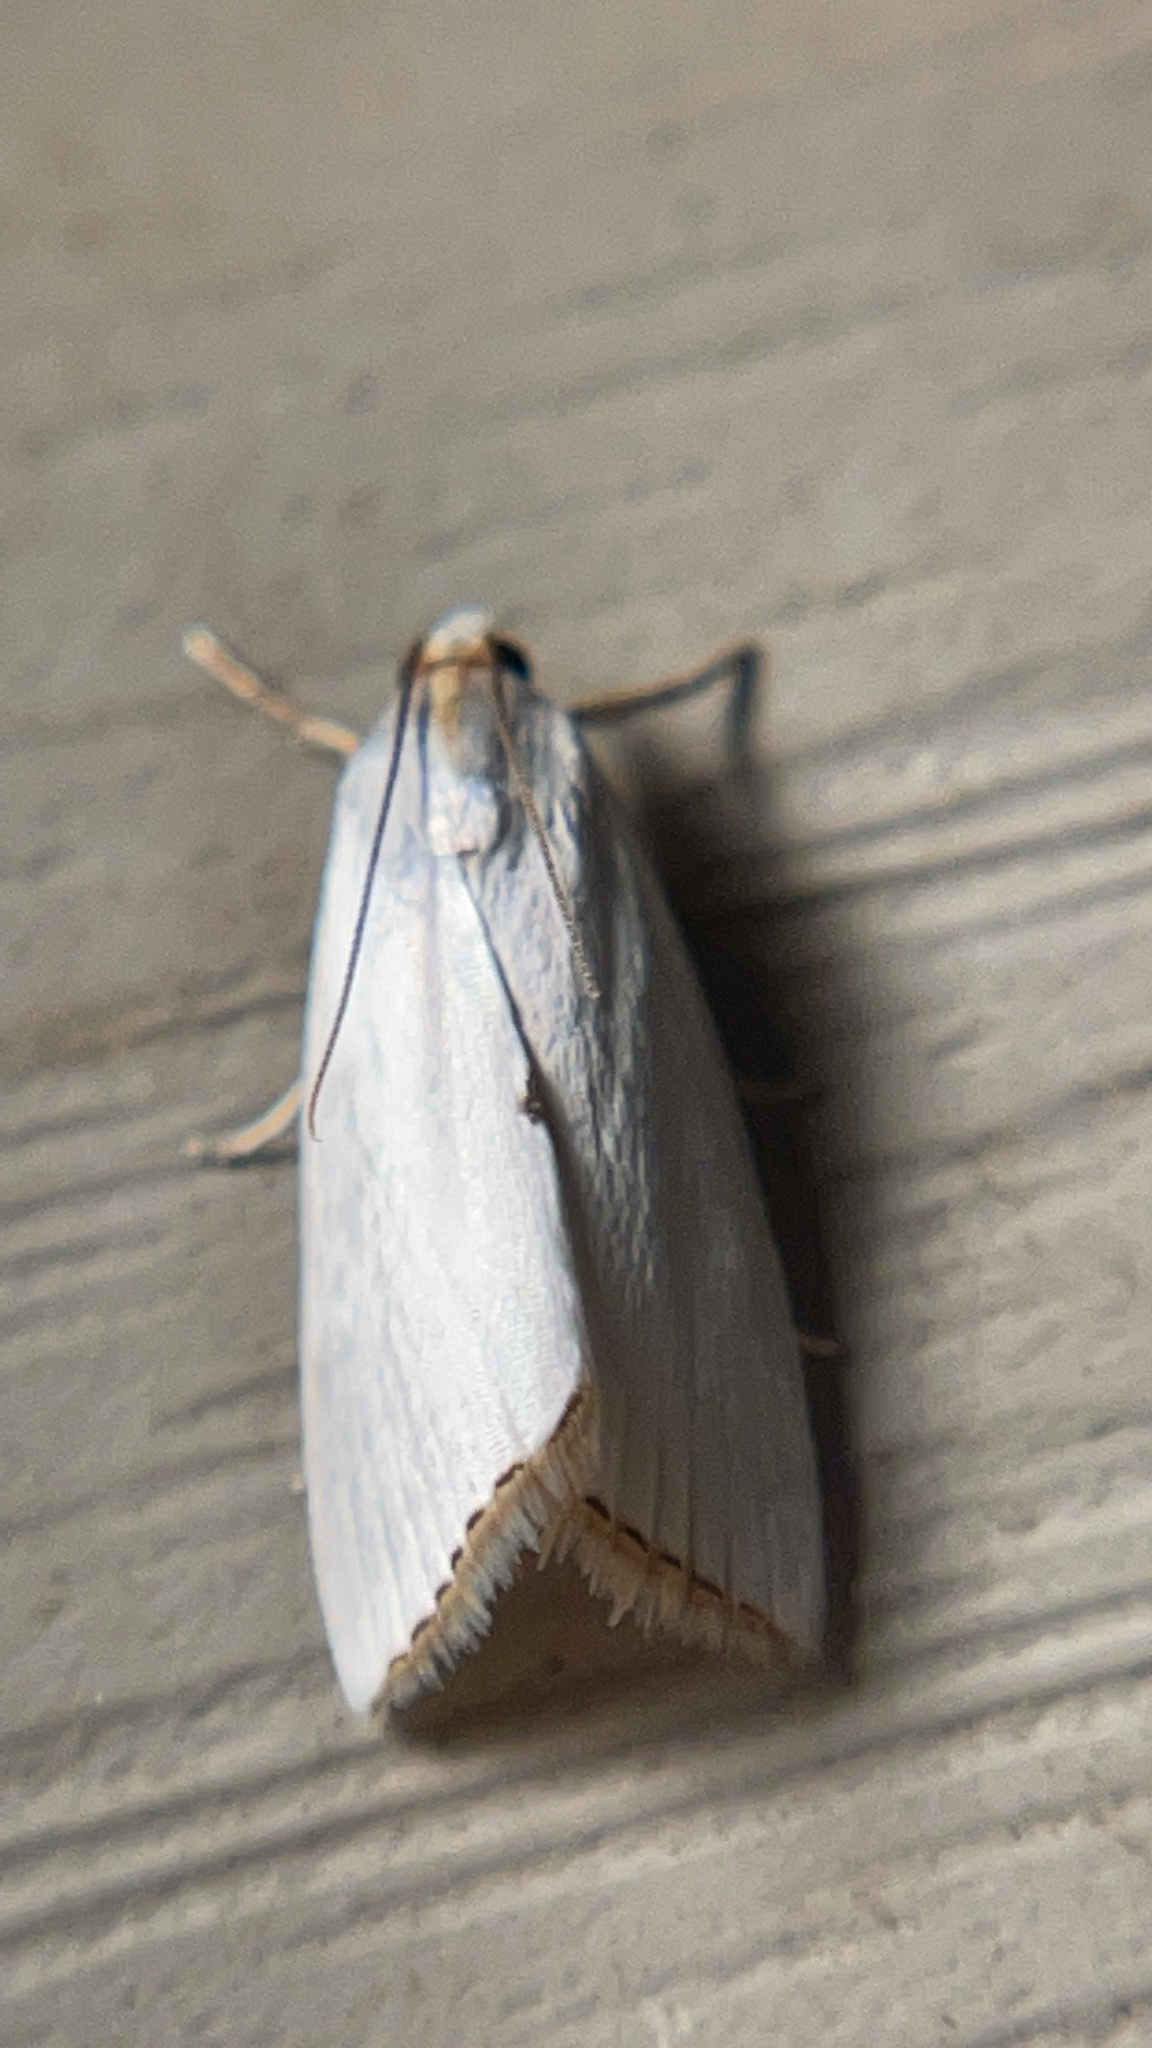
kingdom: Animalia
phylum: Arthropoda
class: Insecta
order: Lepidoptera
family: Crambidae
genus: Argyria
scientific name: Argyria nivalis
